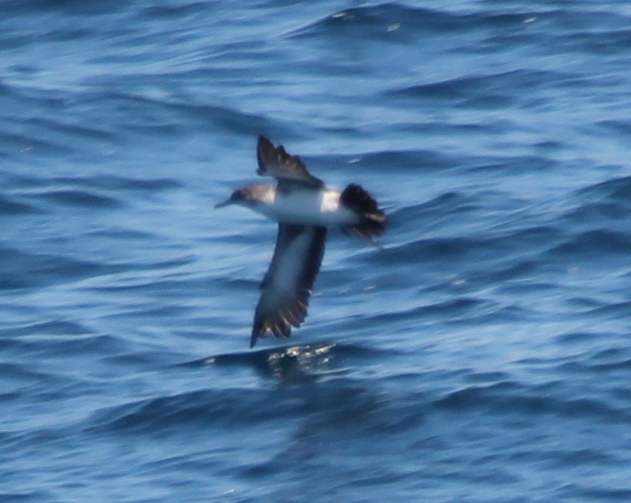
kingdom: Animalia
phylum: Chordata
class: Aves
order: Procellariiformes
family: Procellariidae
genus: Puffinus
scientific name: Puffinus opisthomelas
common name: Black-vented shearwater
